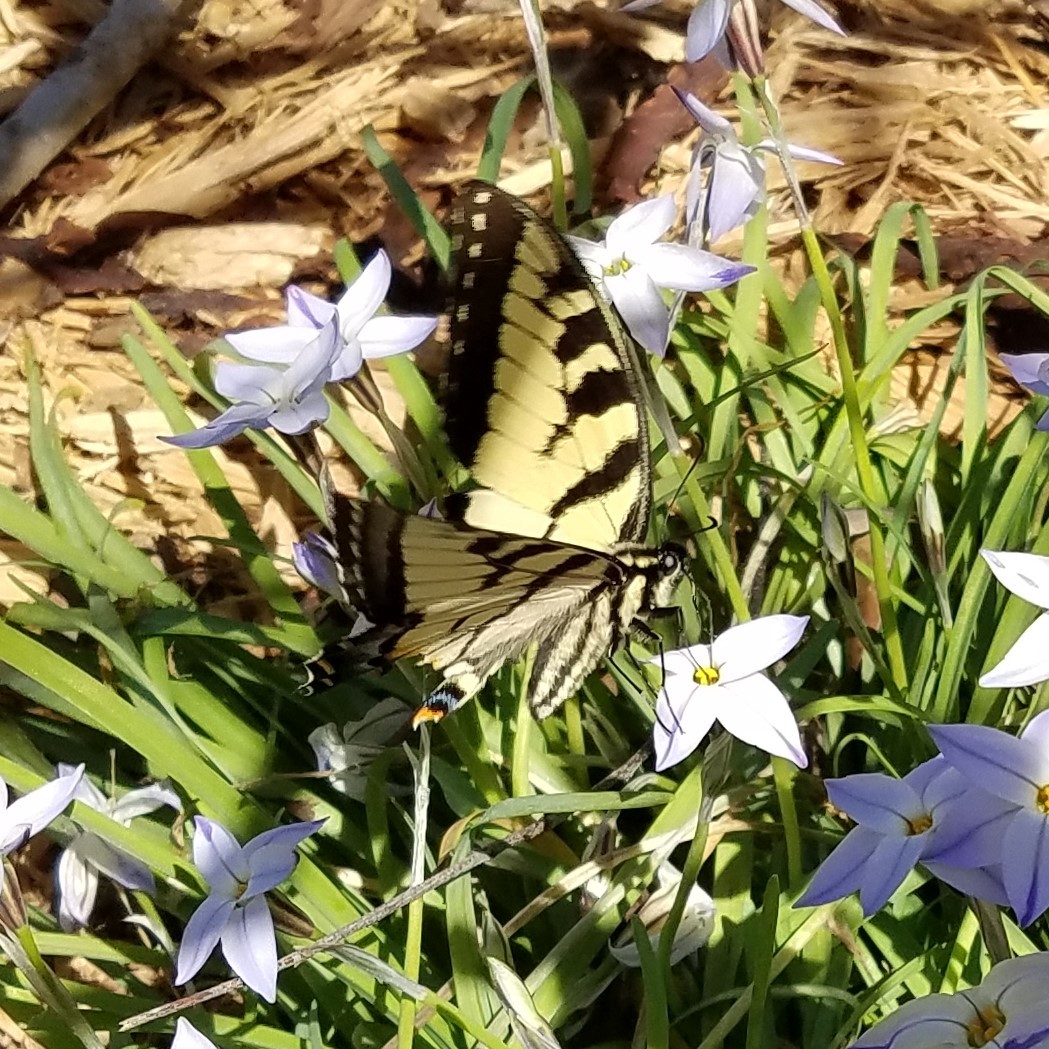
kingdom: Animalia
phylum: Arthropoda
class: Insecta
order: Lepidoptera
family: Papilionidae
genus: Papilio
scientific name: Papilio glaucus
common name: Tiger swallowtail
